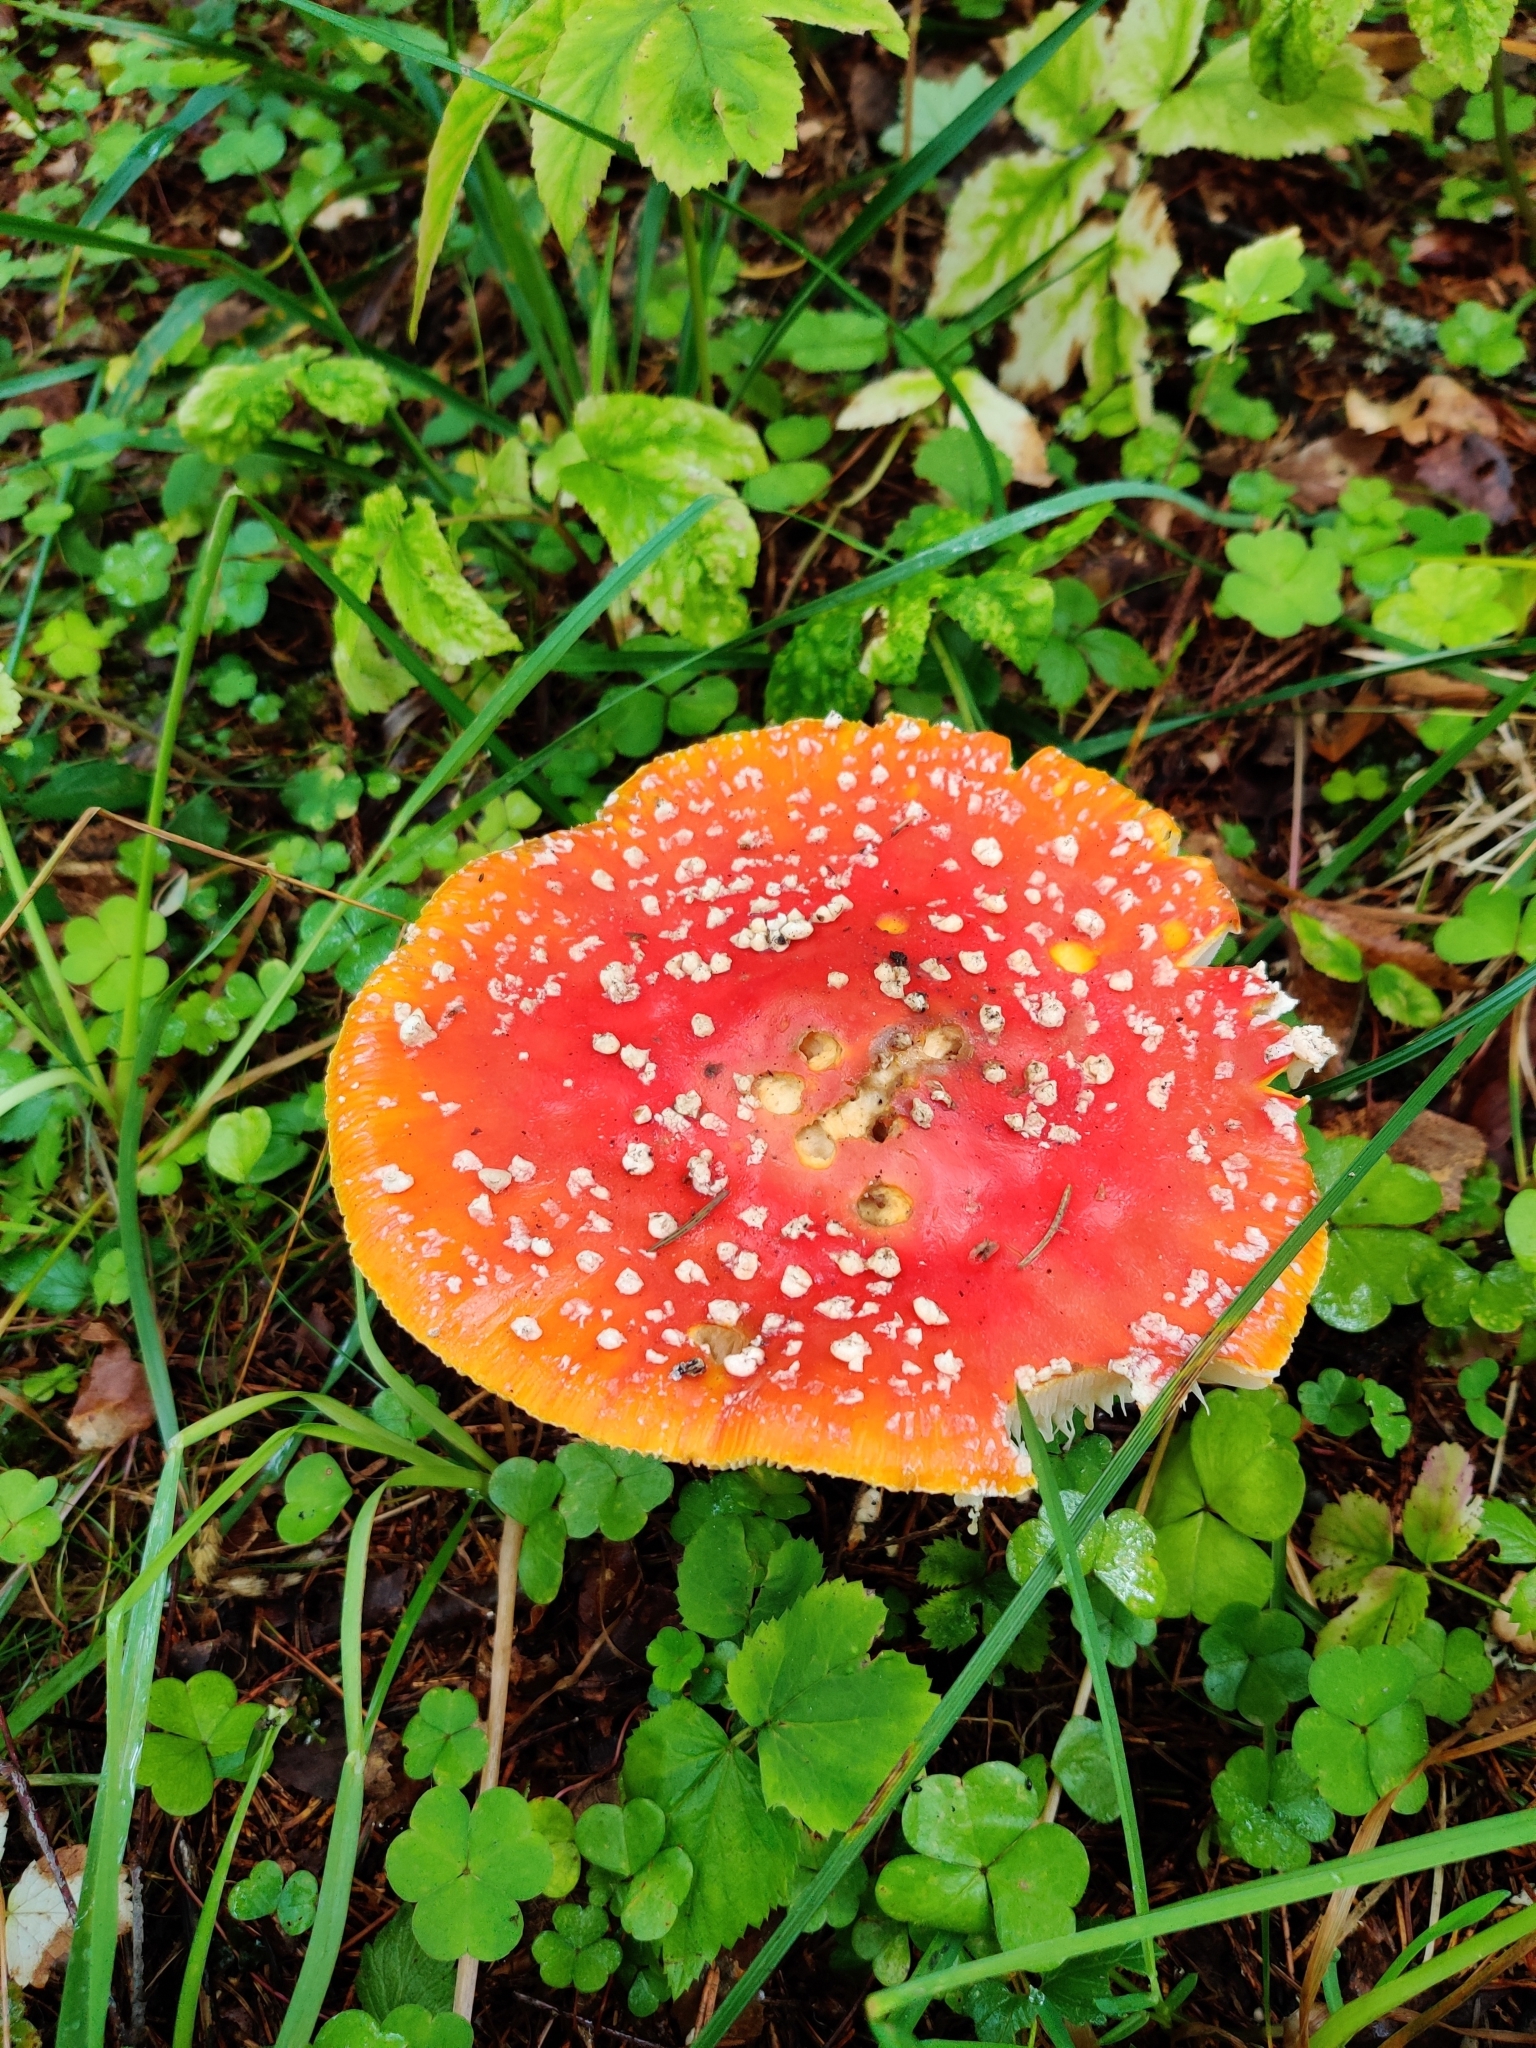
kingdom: Fungi
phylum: Basidiomycota
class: Agaricomycetes
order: Agaricales
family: Amanitaceae
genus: Amanita
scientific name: Amanita muscaria
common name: Fly agaric
